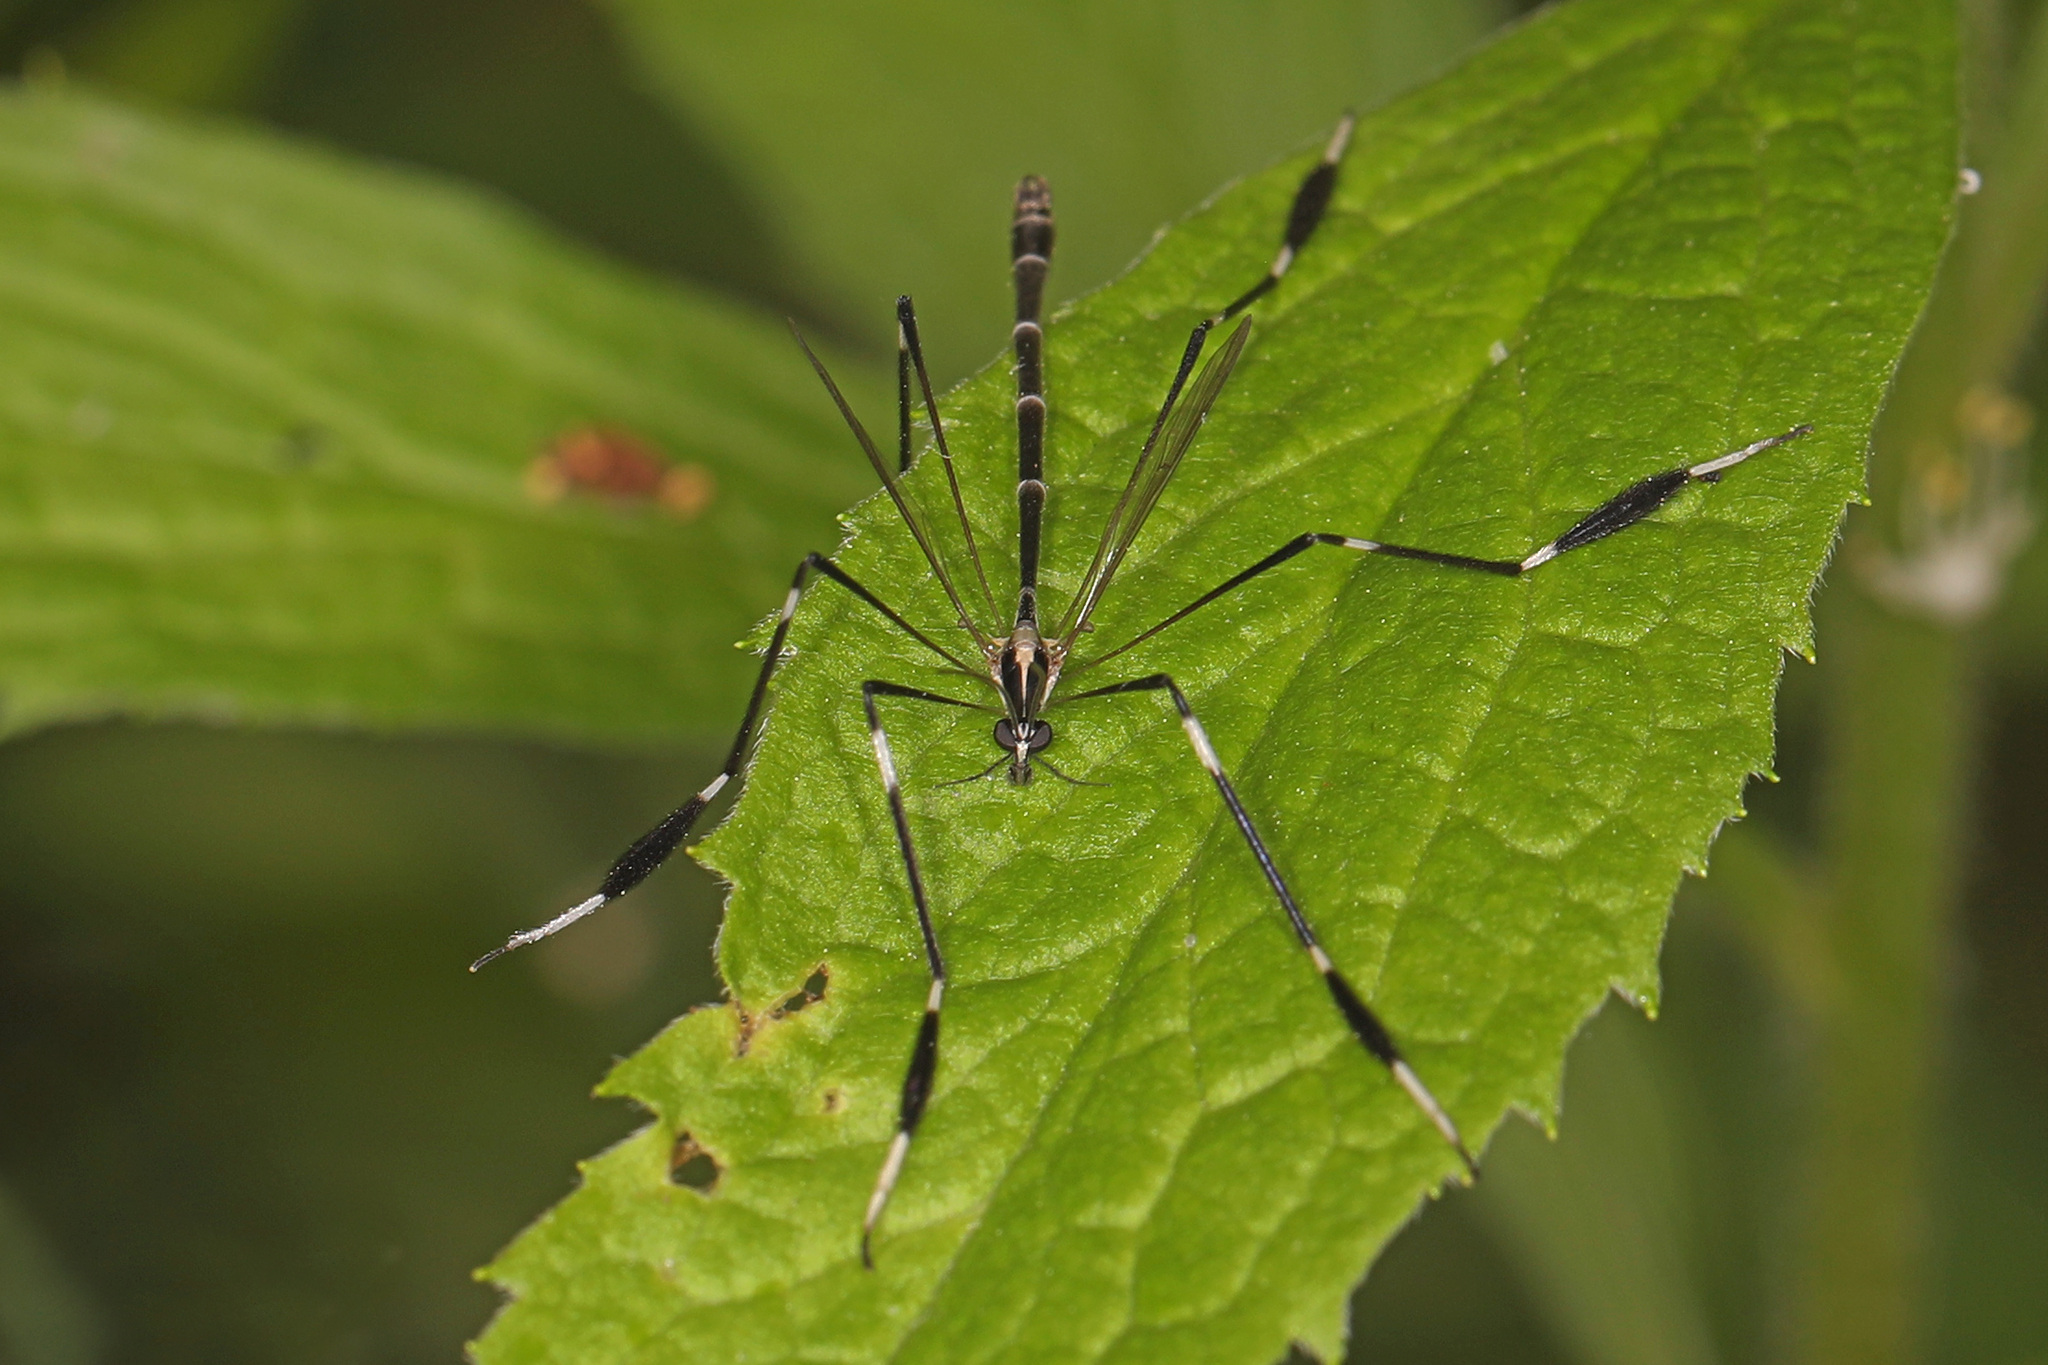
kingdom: Animalia
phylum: Arthropoda
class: Insecta
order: Diptera
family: Ptychopteridae
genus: Bittacomorpha
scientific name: Bittacomorpha clavipes
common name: Eastern phantom crane fly
